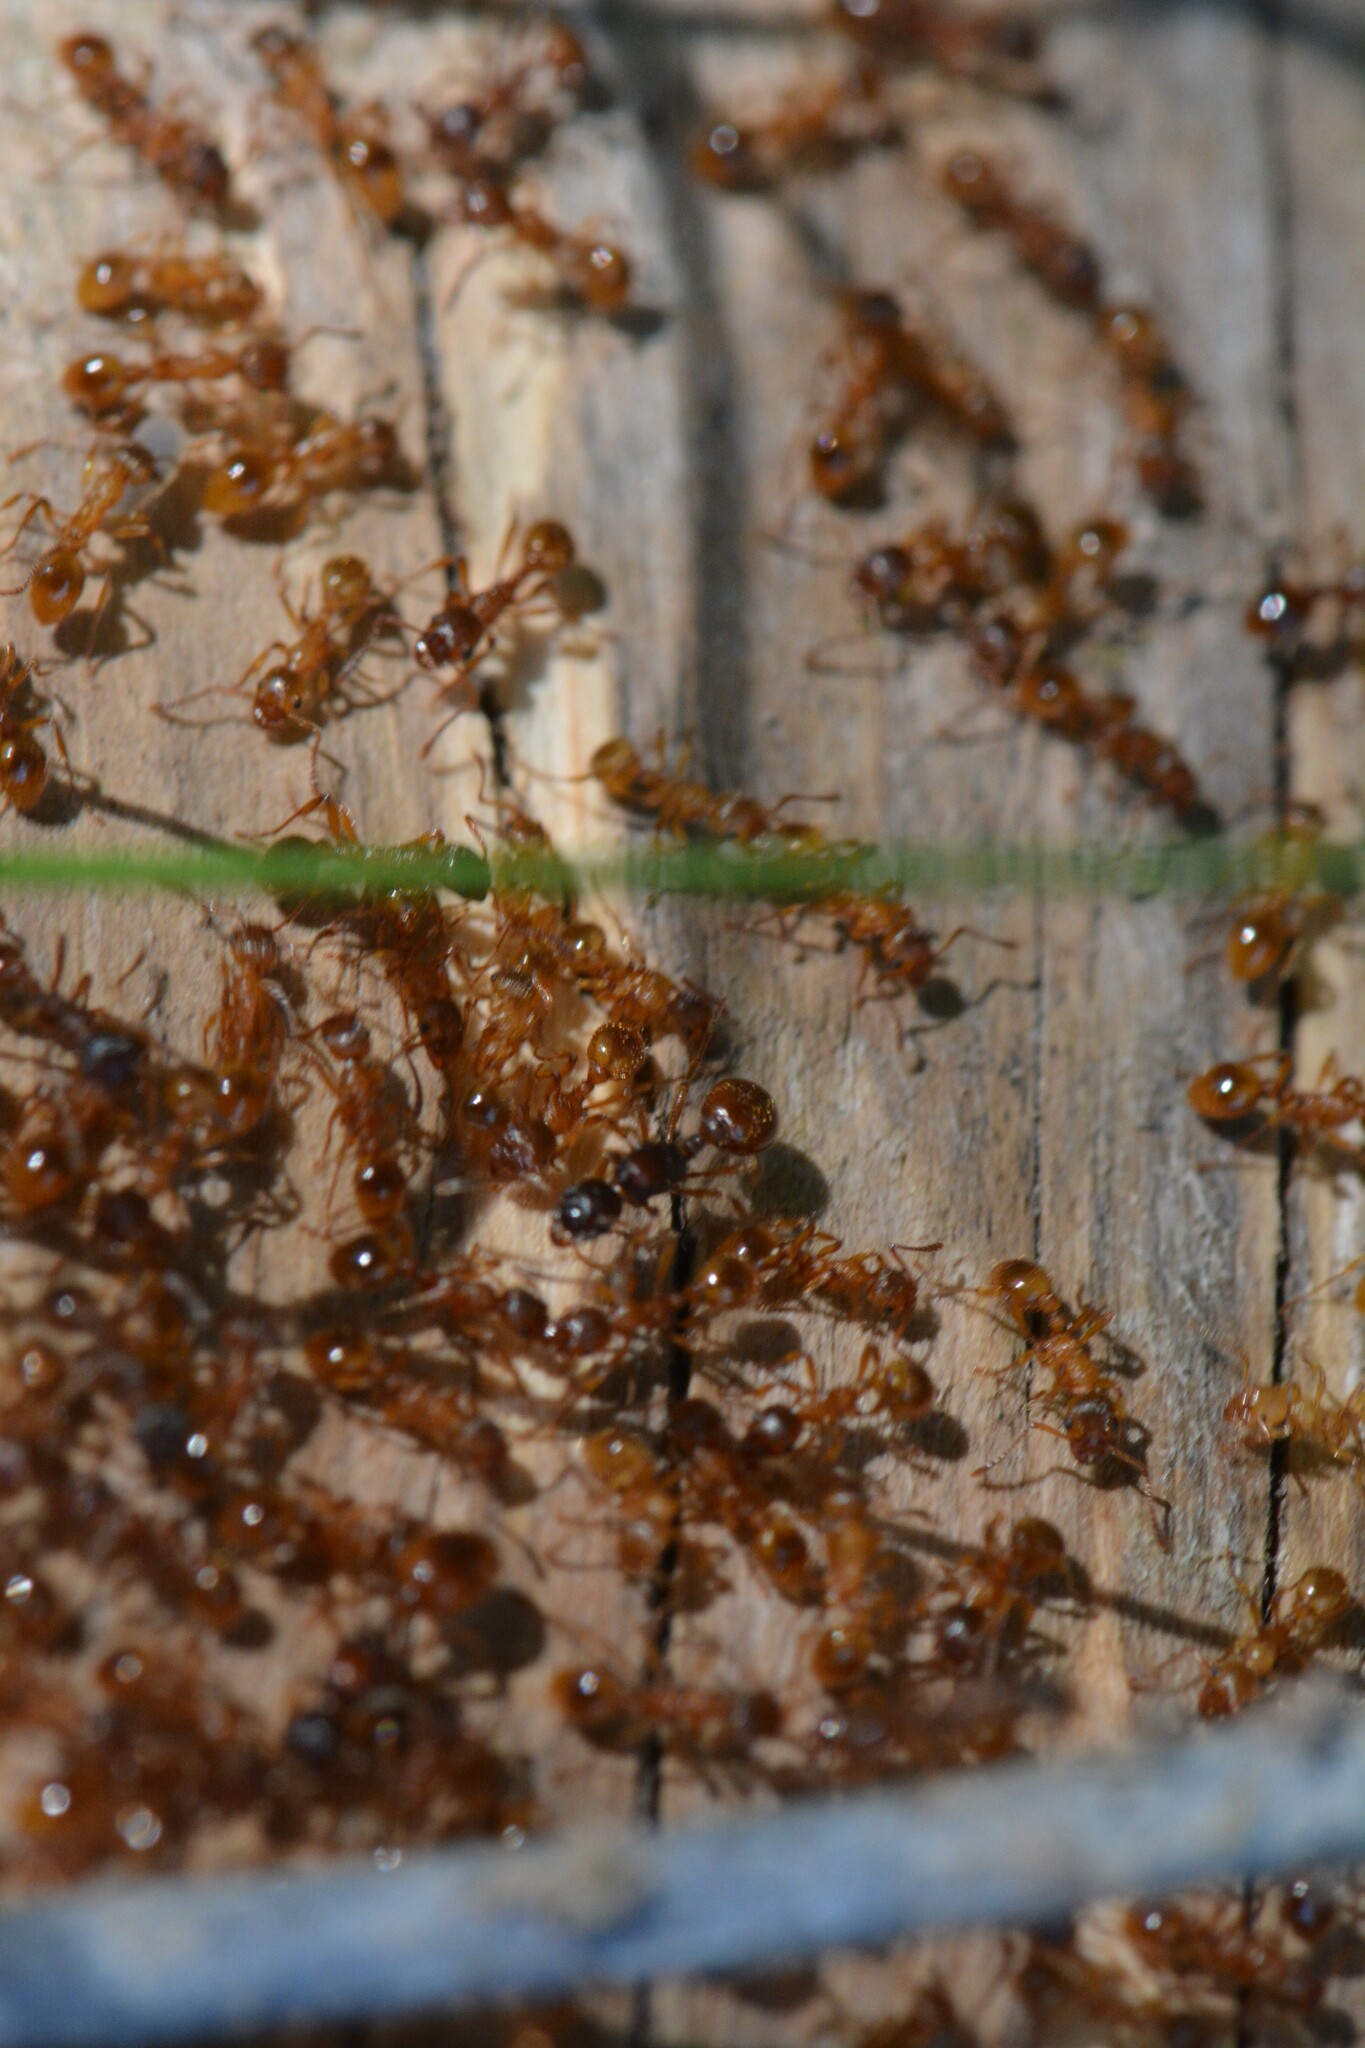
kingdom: Animalia
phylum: Arthropoda
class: Insecta
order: Hymenoptera
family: Formicidae
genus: Myrmica
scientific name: Myrmica rubra
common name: European fire ant
